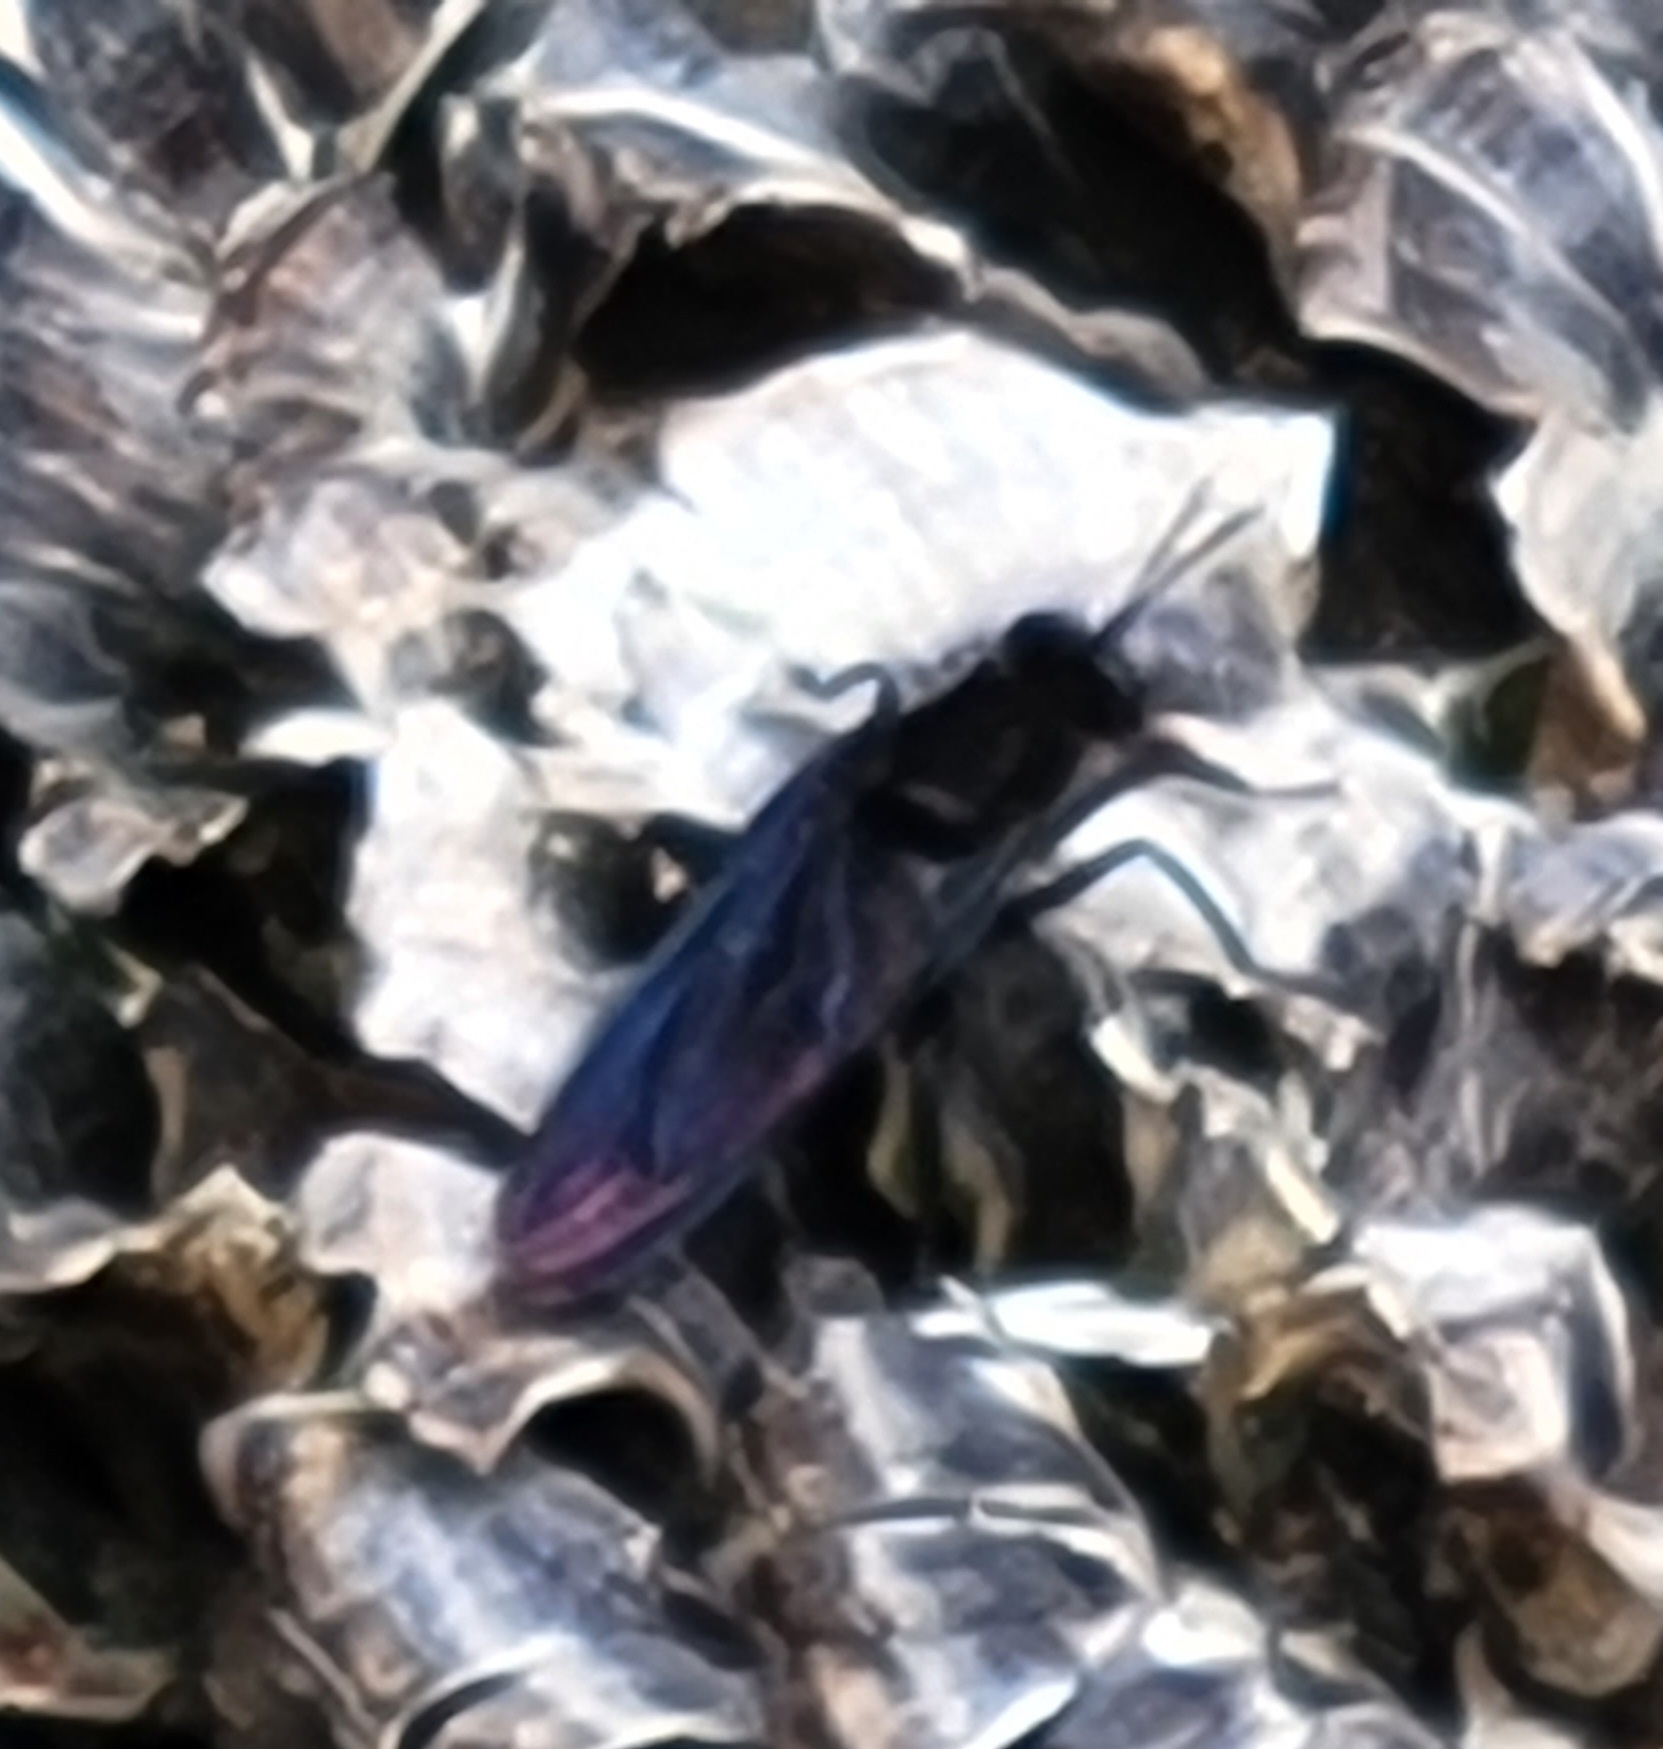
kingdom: Animalia
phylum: Arthropoda
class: Insecta
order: Diptera
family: Mydidae
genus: Mydas
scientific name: Mydas clavatus
